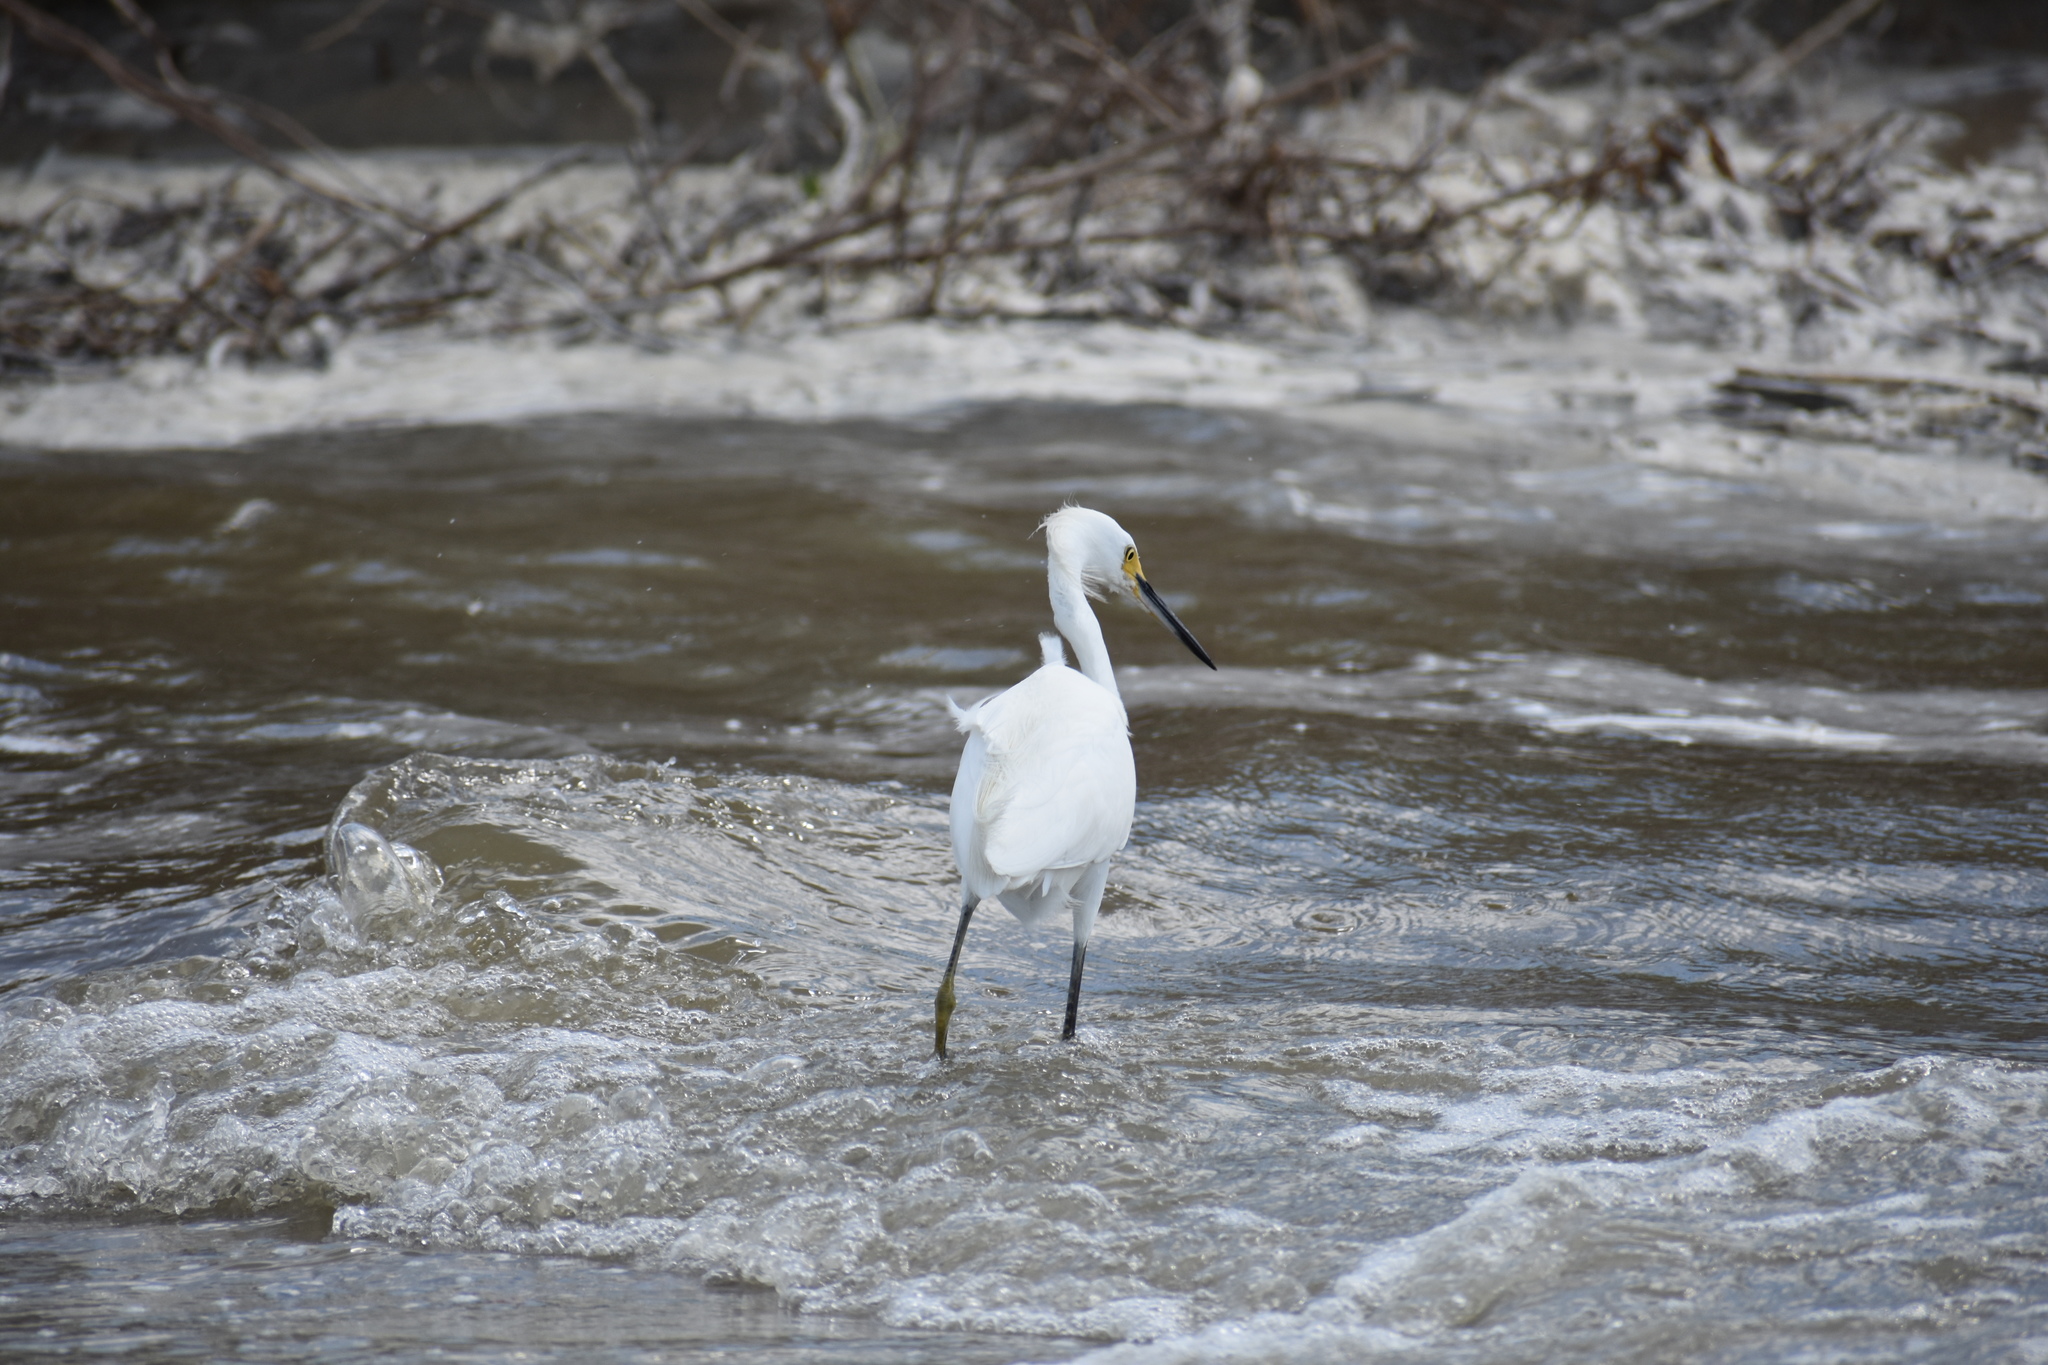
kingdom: Animalia
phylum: Chordata
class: Aves
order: Pelecaniformes
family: Ardeidae
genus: Egretta
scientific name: Egretta thula
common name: Snowy egret
